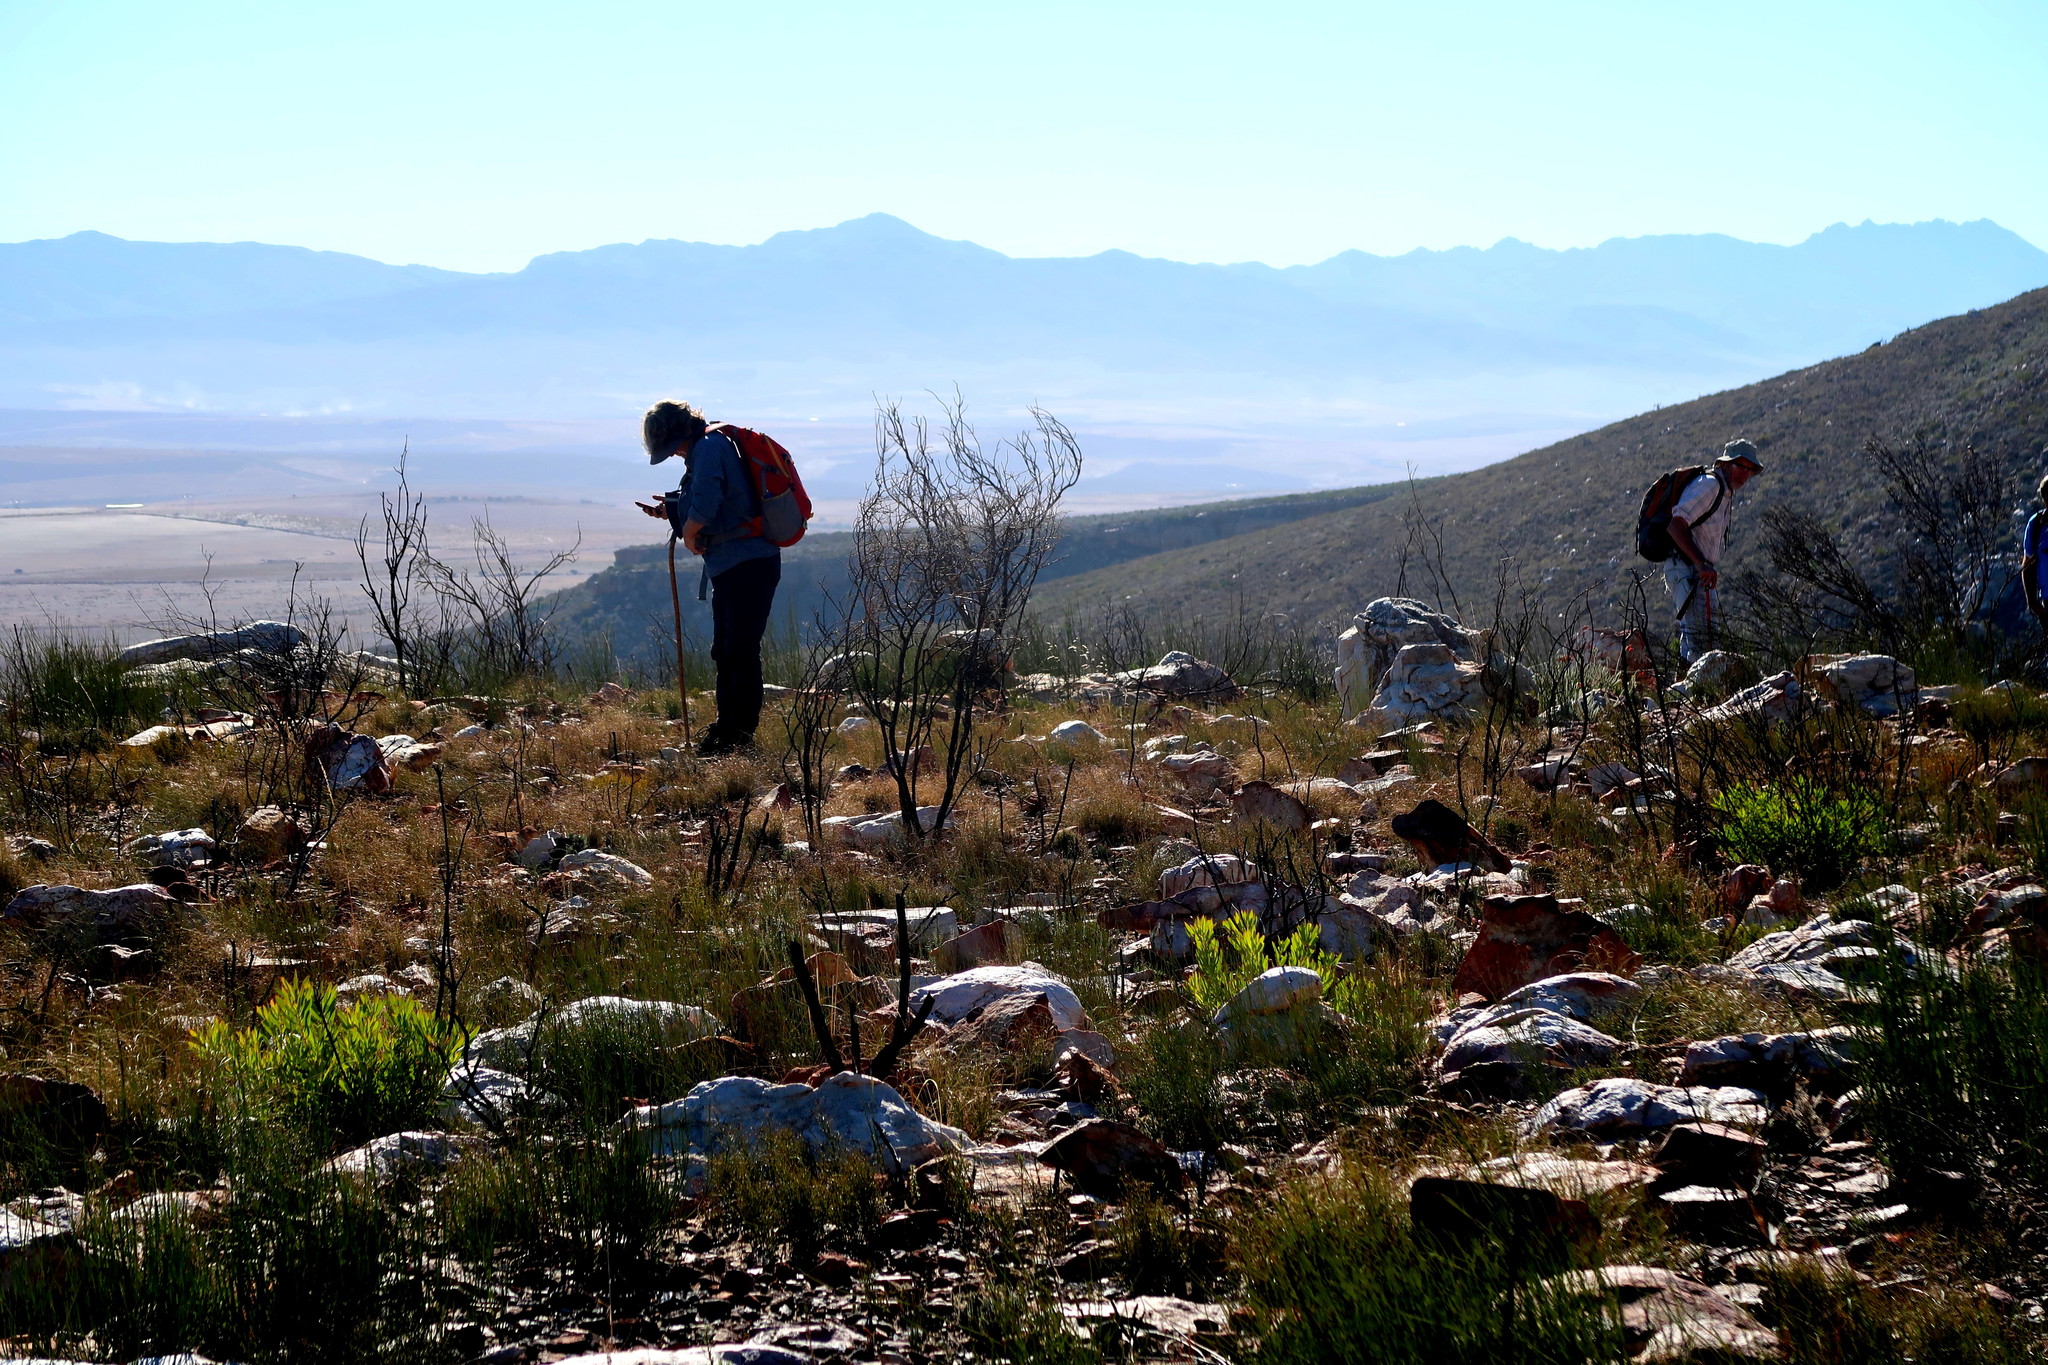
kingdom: Plantae
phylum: Tracheophyta
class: Magnoliopsida
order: Proteales
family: Proteaceae
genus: Leucadendron
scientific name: Leucadendron salignum
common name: Common sunshine conebush
